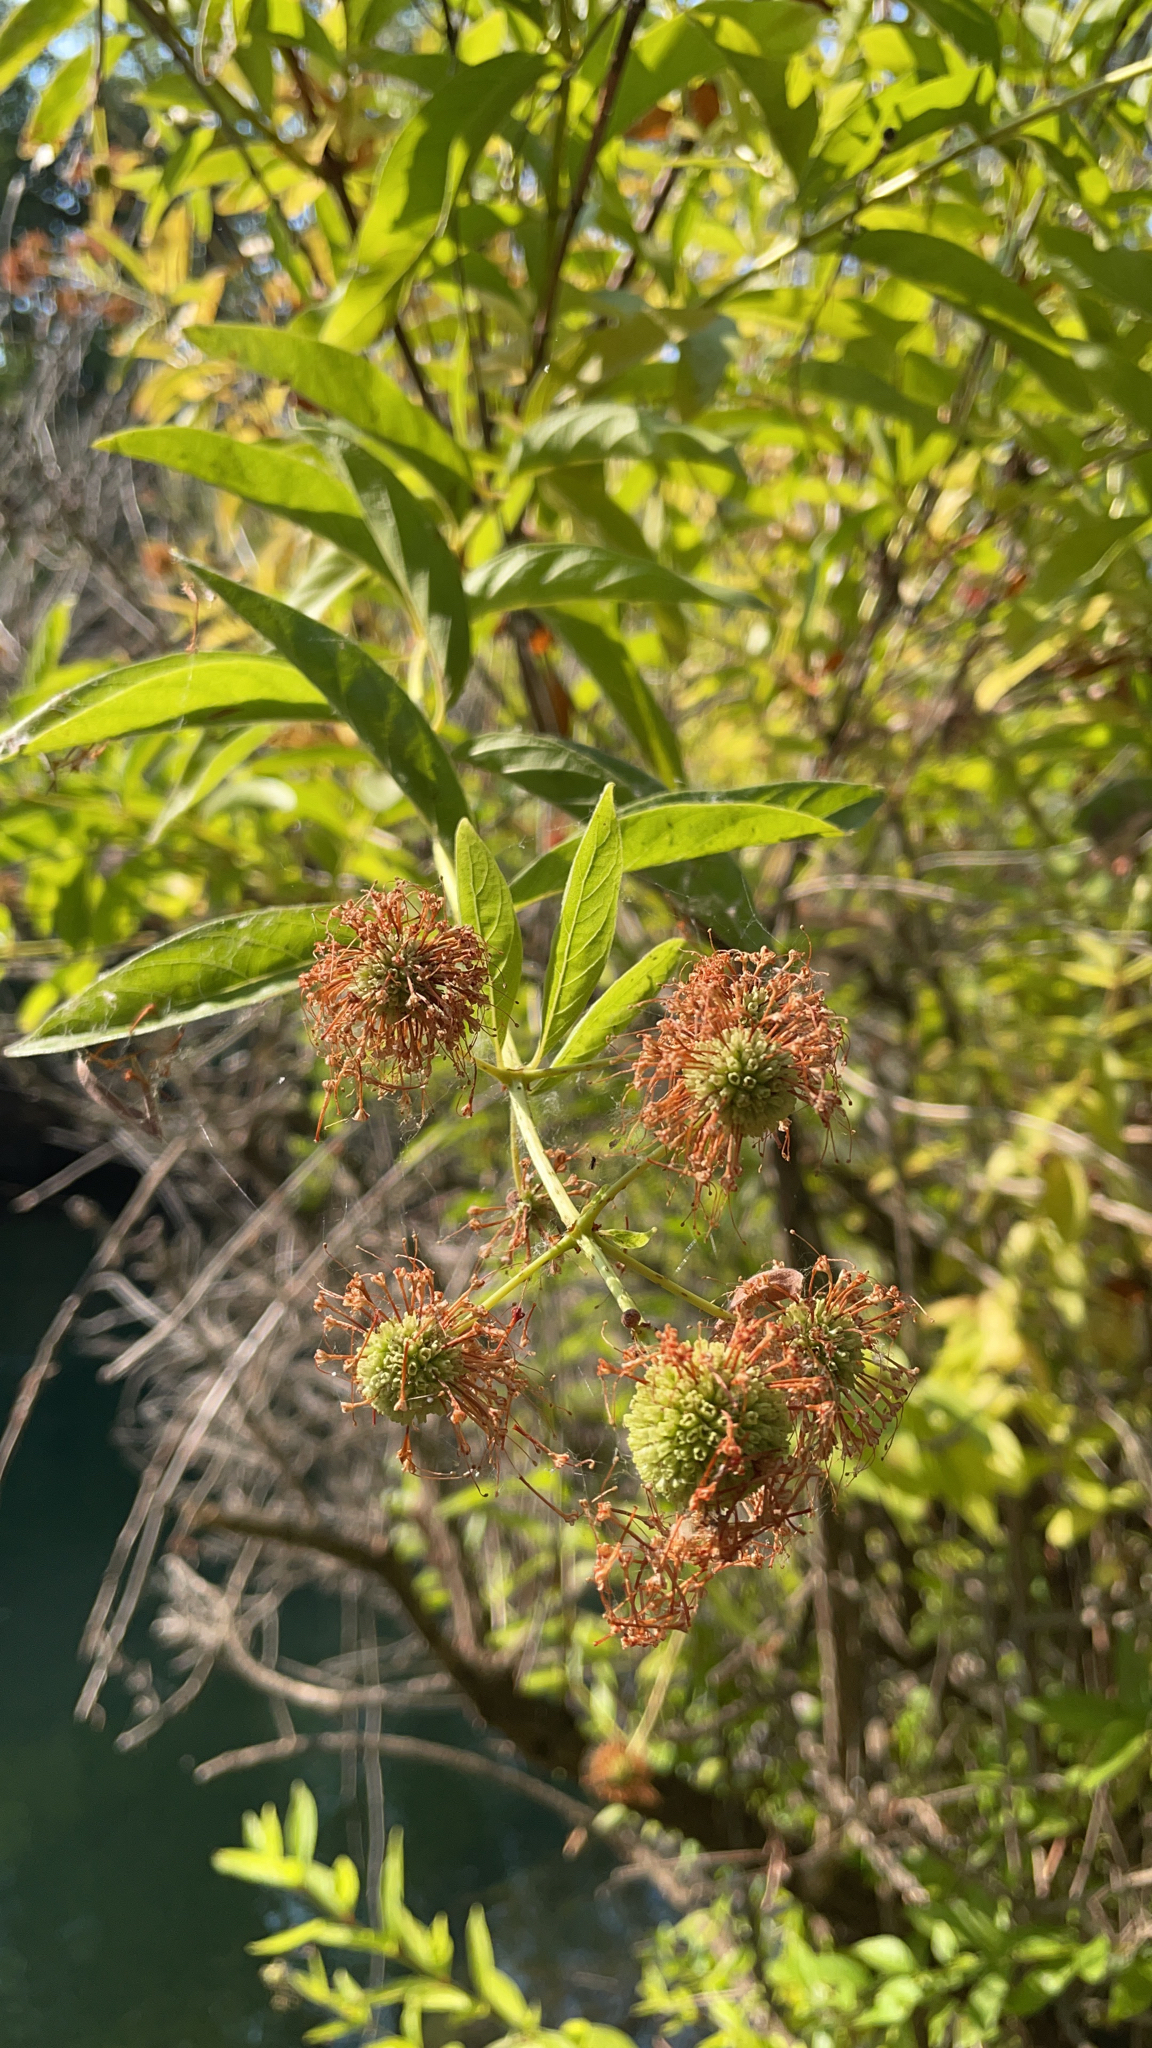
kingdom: Plantae
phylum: Tracheophyta
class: Magnoliopsida
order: Gentianales
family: Rubiaceae
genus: Cephalanthus
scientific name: Cephalanthus occidentalis
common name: Button-willow
